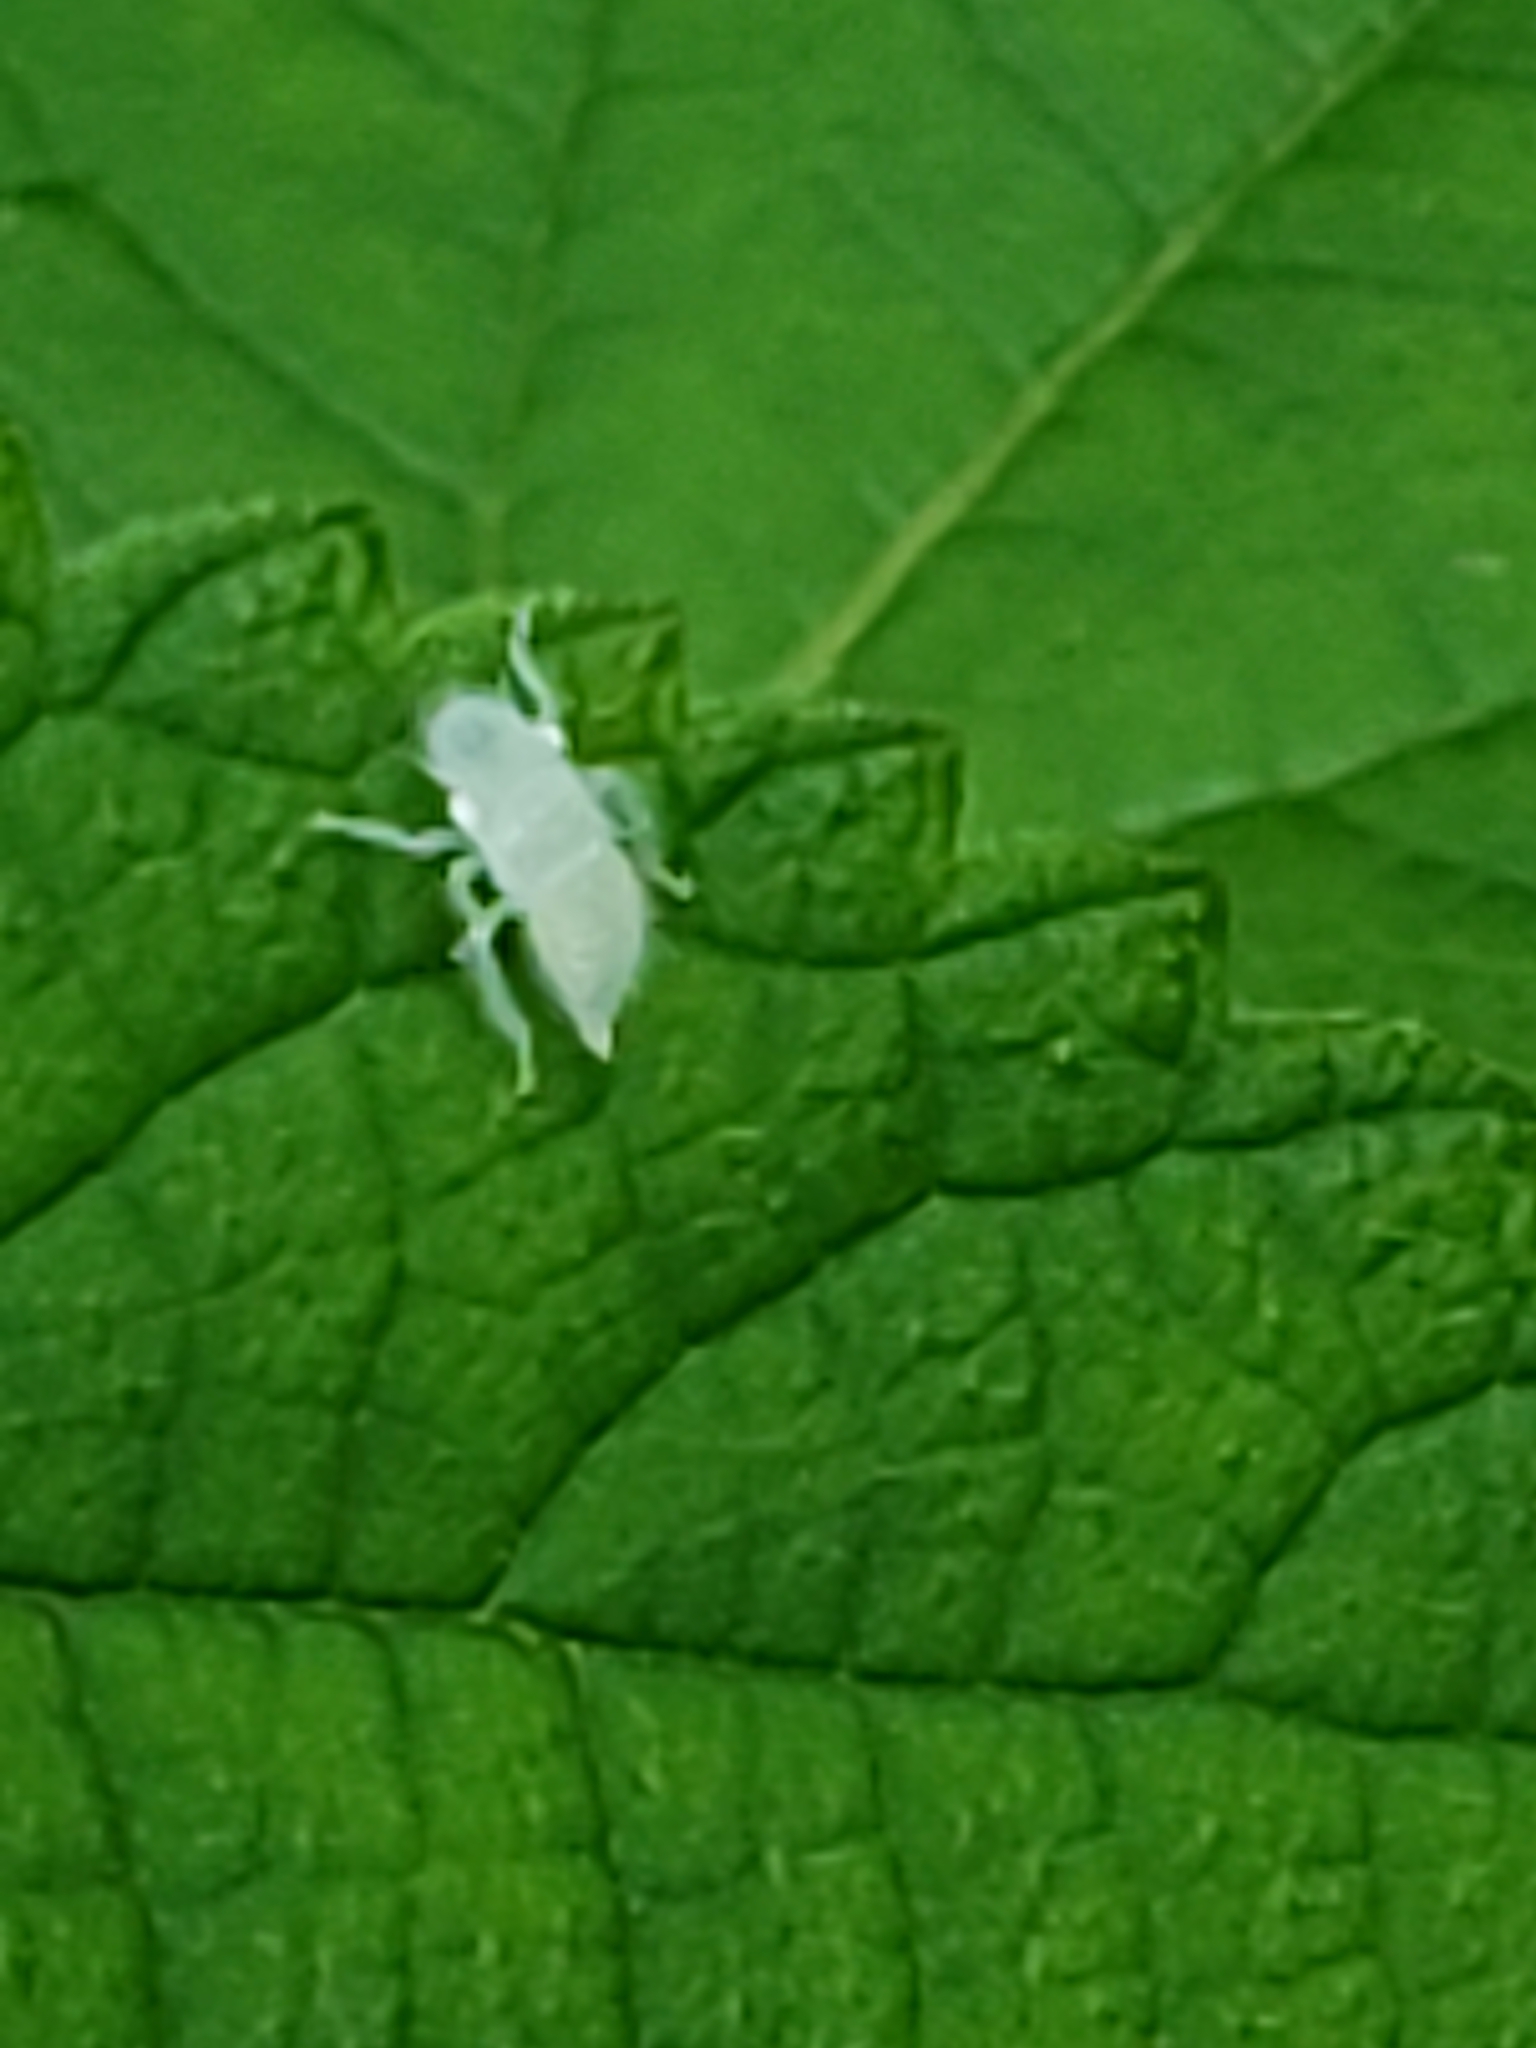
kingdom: Animalia
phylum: Arthropoda
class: Insecta
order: Hemiptera
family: Cicadellidae
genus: Paraulacizes
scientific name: Paraulacizes irrorata
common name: Speckled sharpshooter
